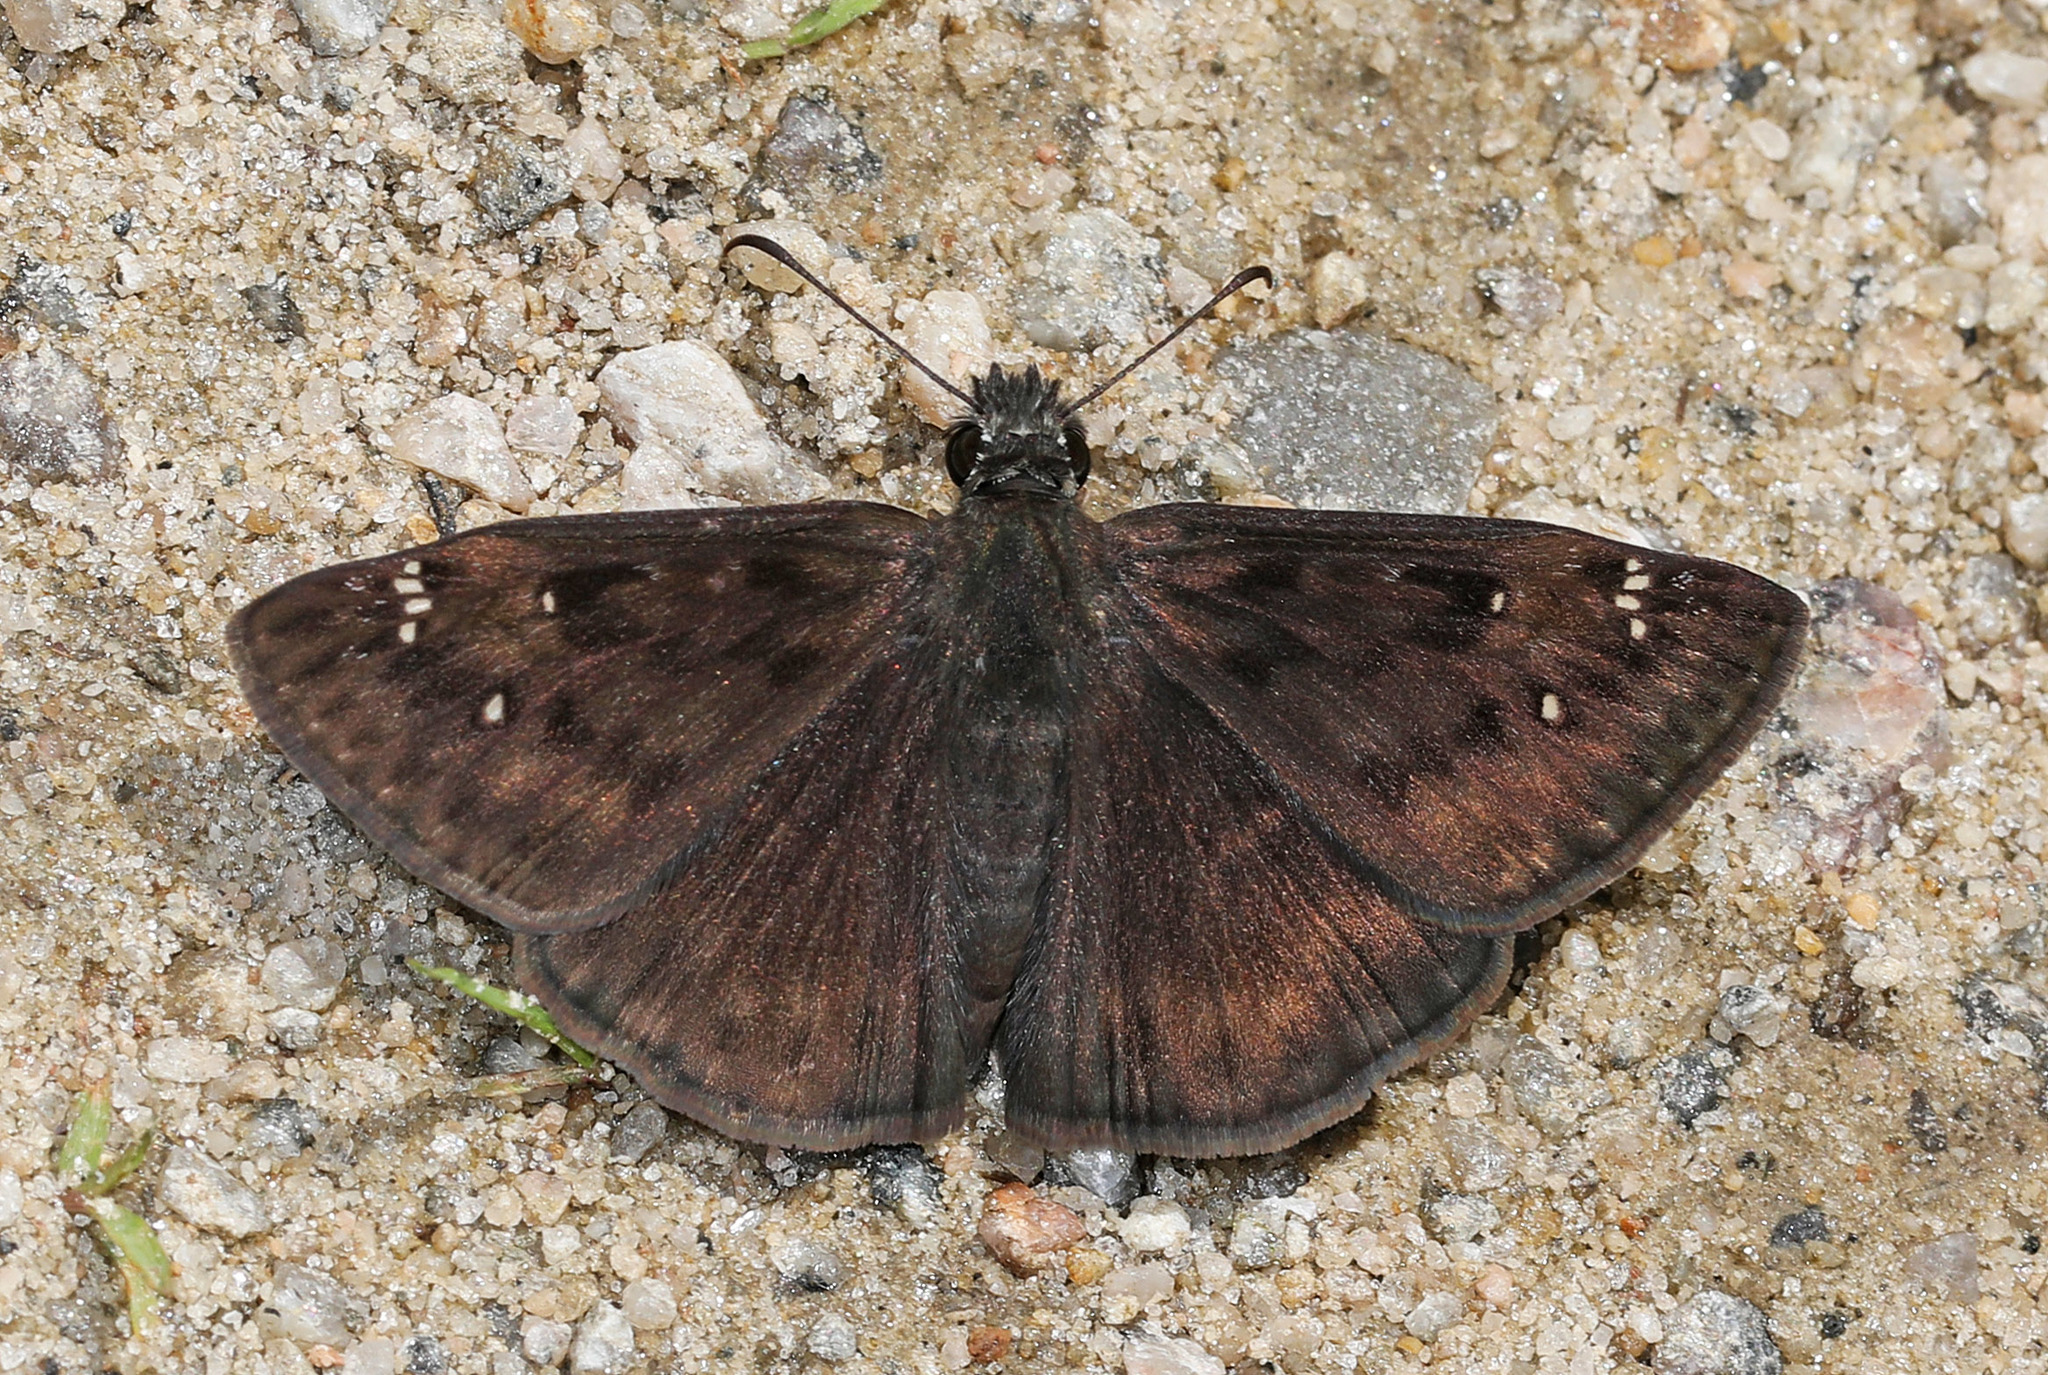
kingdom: Animalia
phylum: Arthropoda
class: Insecta
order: Lepidoptera
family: Hesperiidae
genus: Erynnis
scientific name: Erynnis horatius
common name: Horace's duskywing
